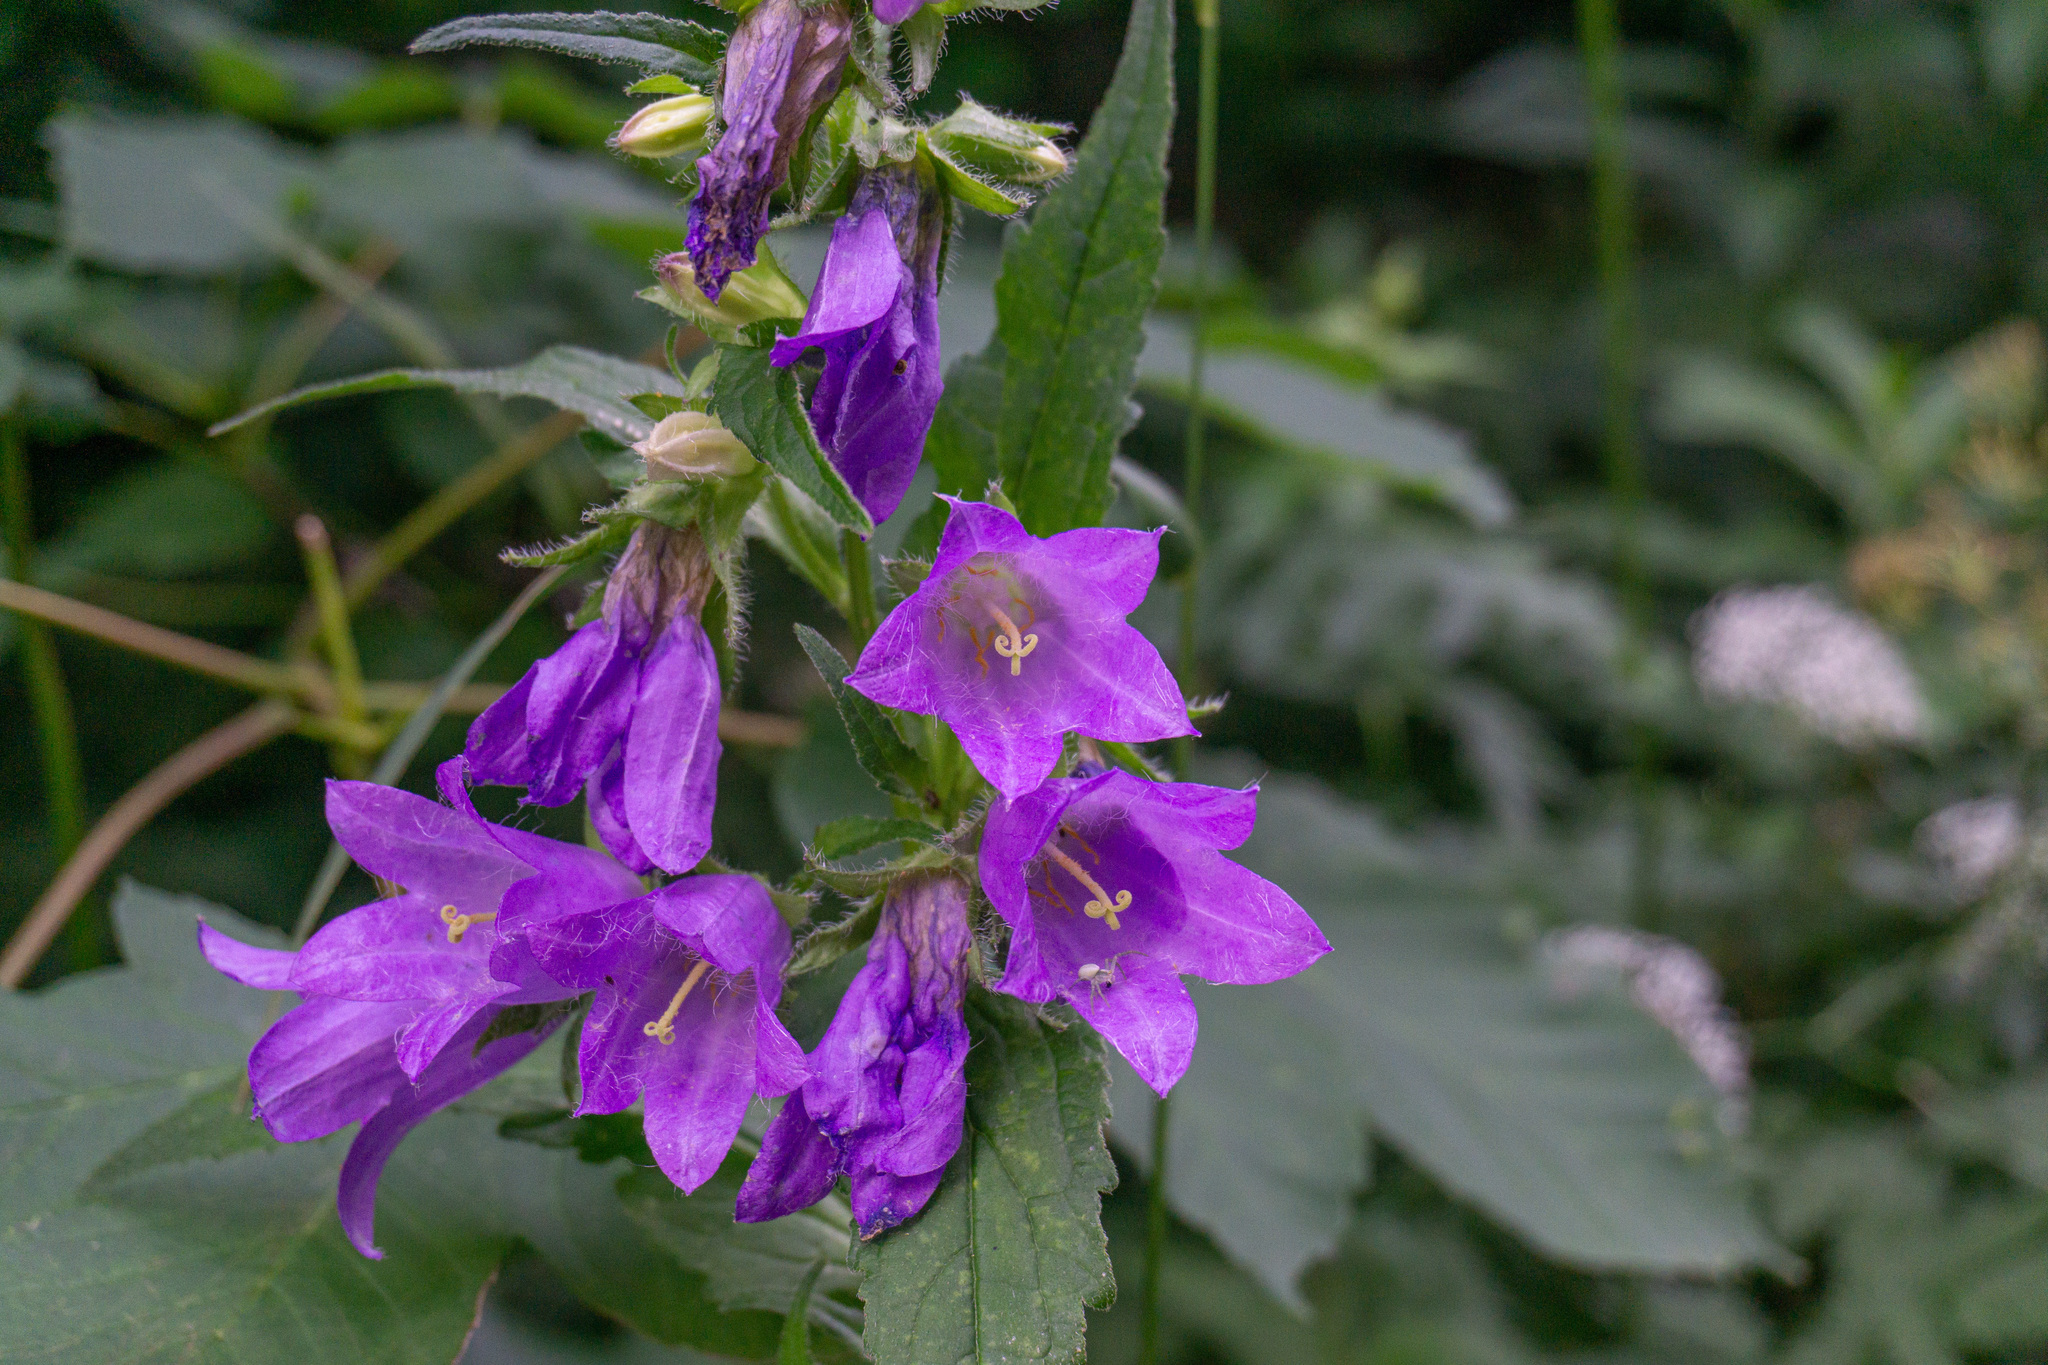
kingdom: Plantae
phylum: Tracheophyta
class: Magnoliopsida
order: Asterales
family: Campanulaceae
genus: Campanula
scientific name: Campanula trachelium
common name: Nettle-leaved bellflower
